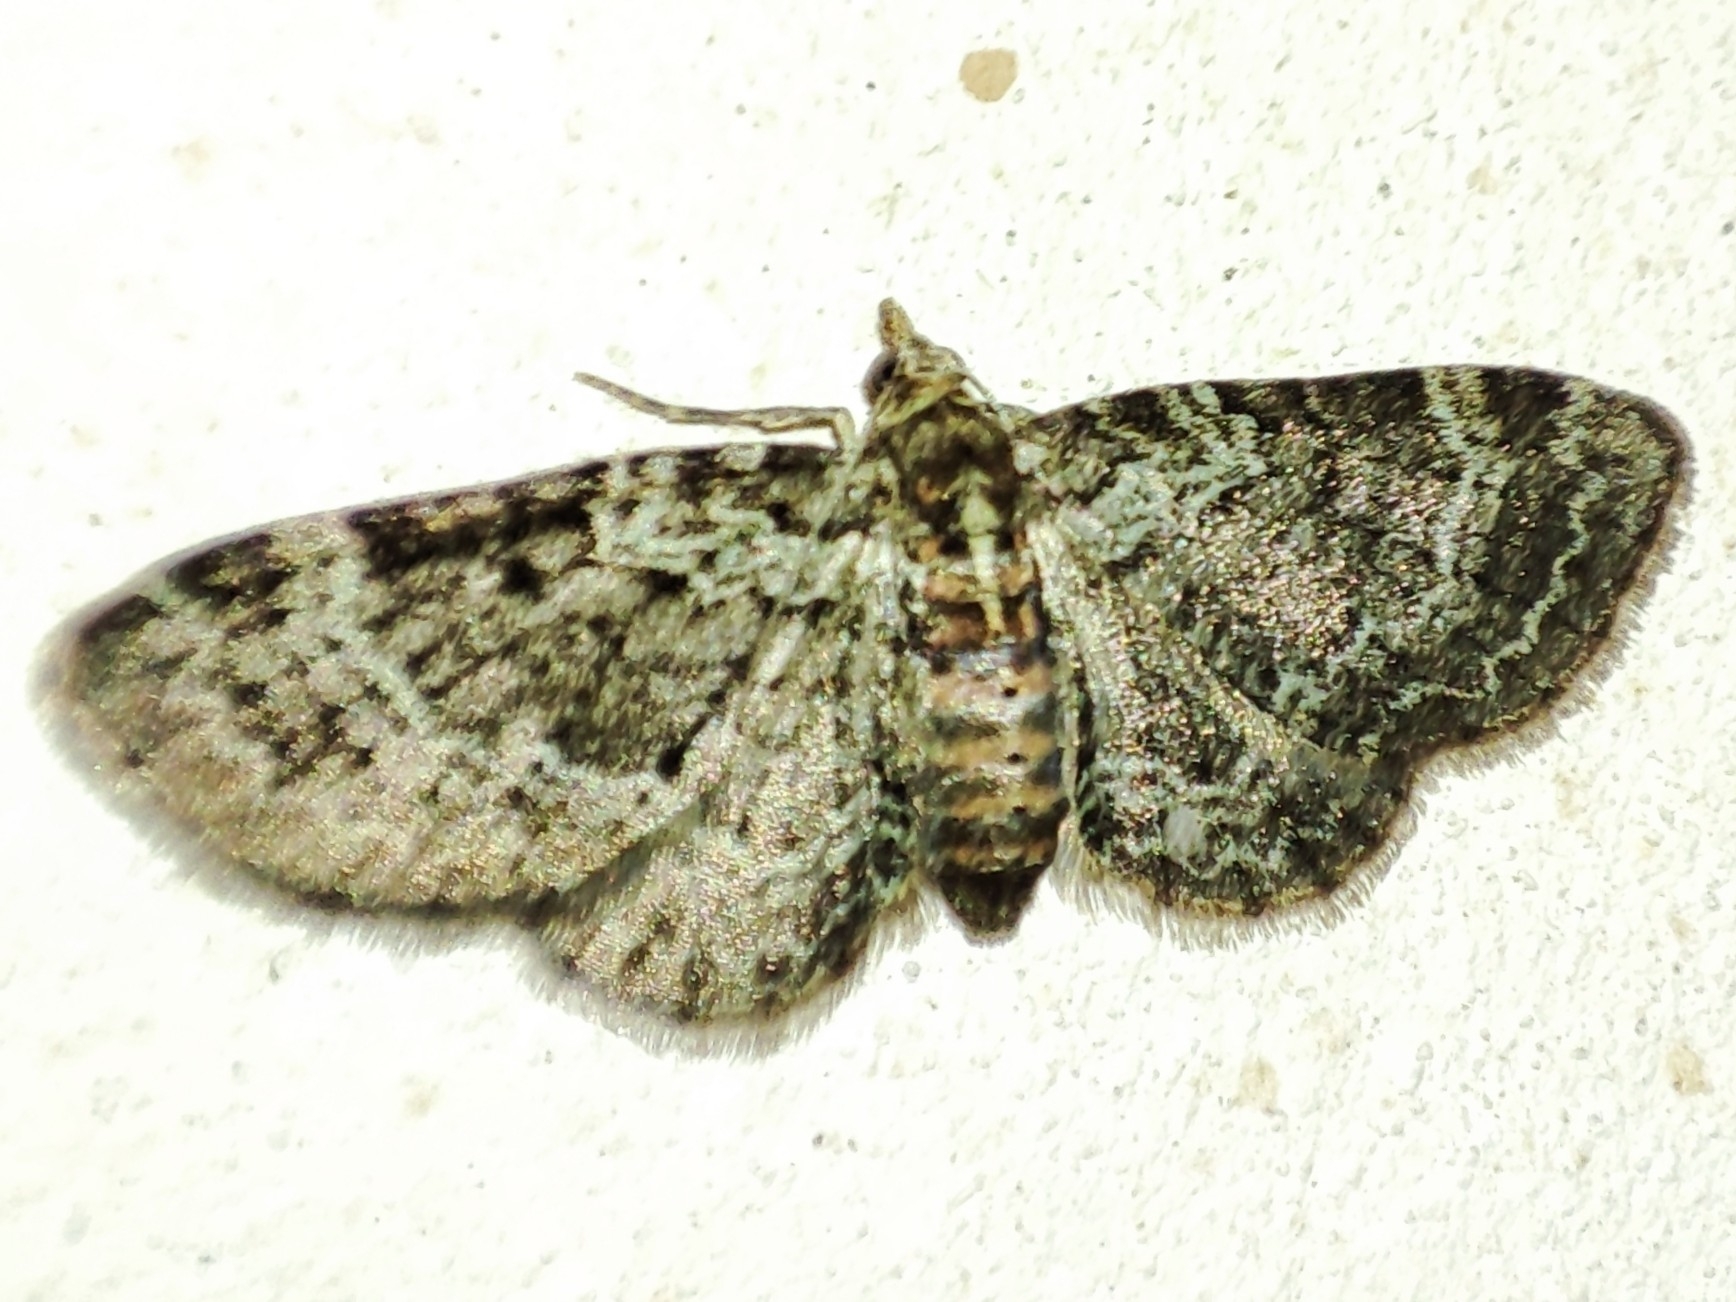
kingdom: Animalia
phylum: Arthropoda
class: Insecta
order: Lepidoptera
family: Geometridae
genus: Pasiphila
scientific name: Pasiphila rectangulata
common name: Green pug
